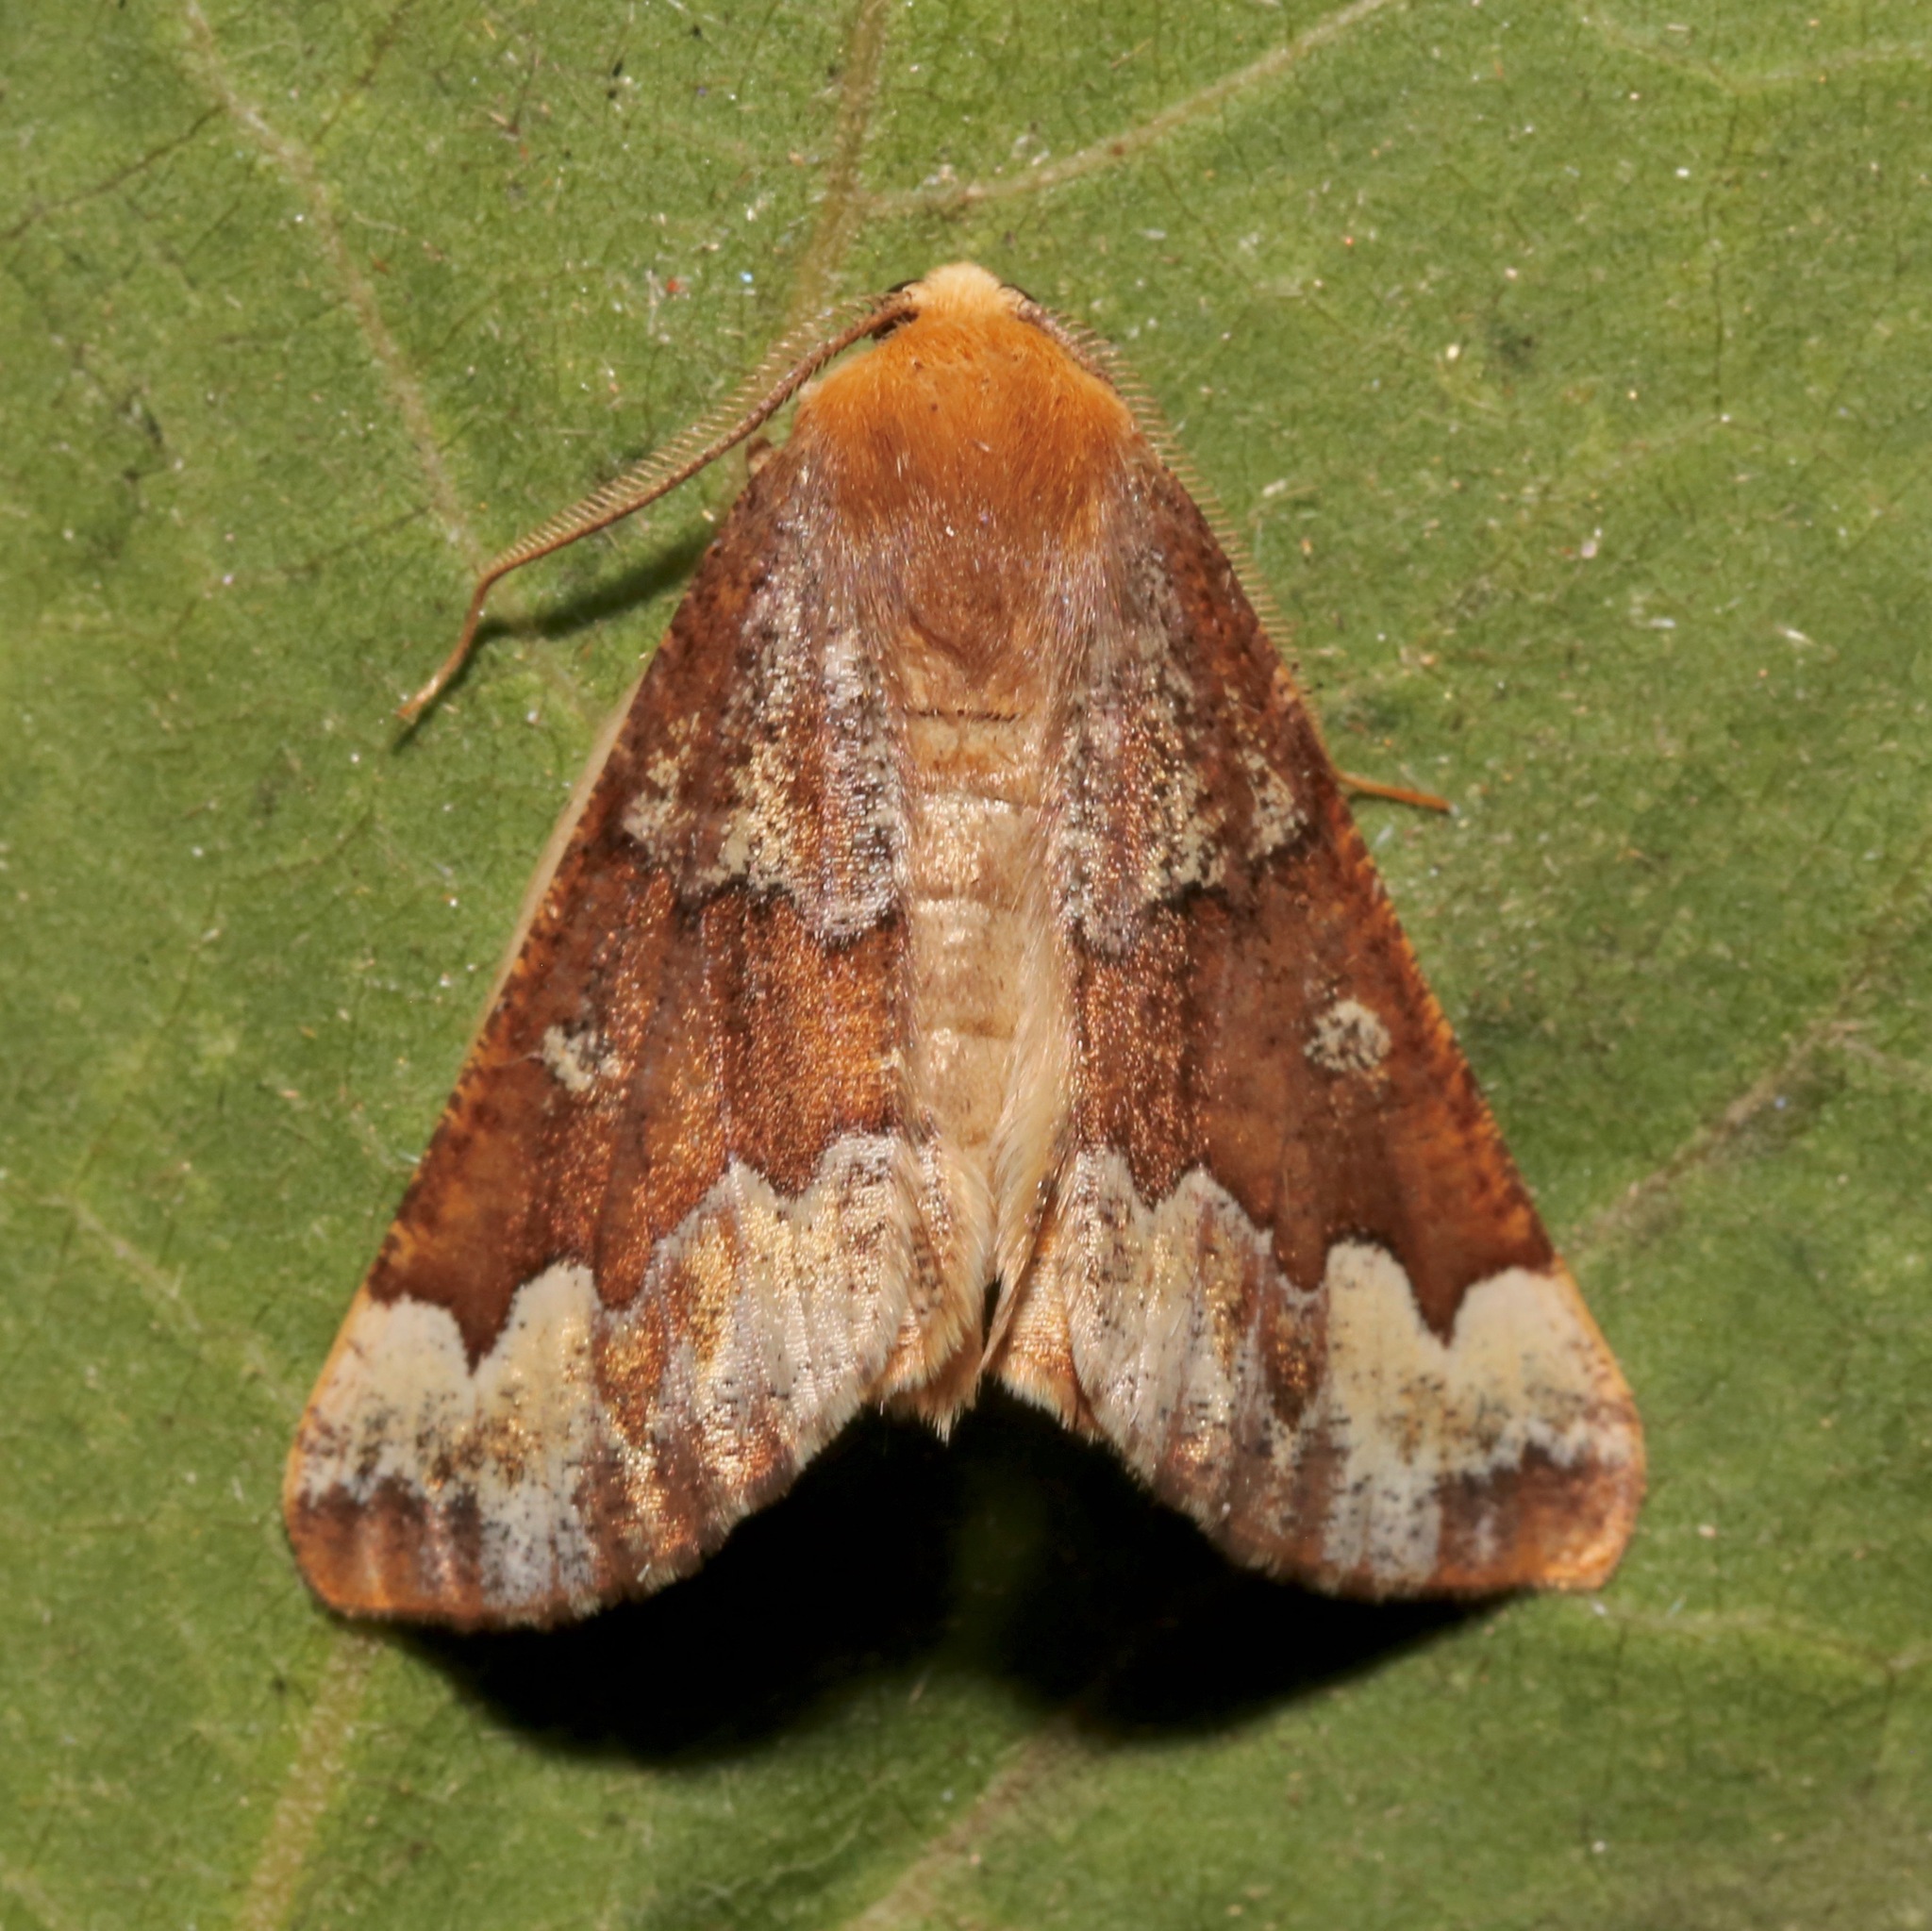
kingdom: Animalia
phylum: Arthropoda
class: Insecta
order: Lepidoptera
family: Geometridae
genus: Caripeta
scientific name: Caripeta pulcherrima
